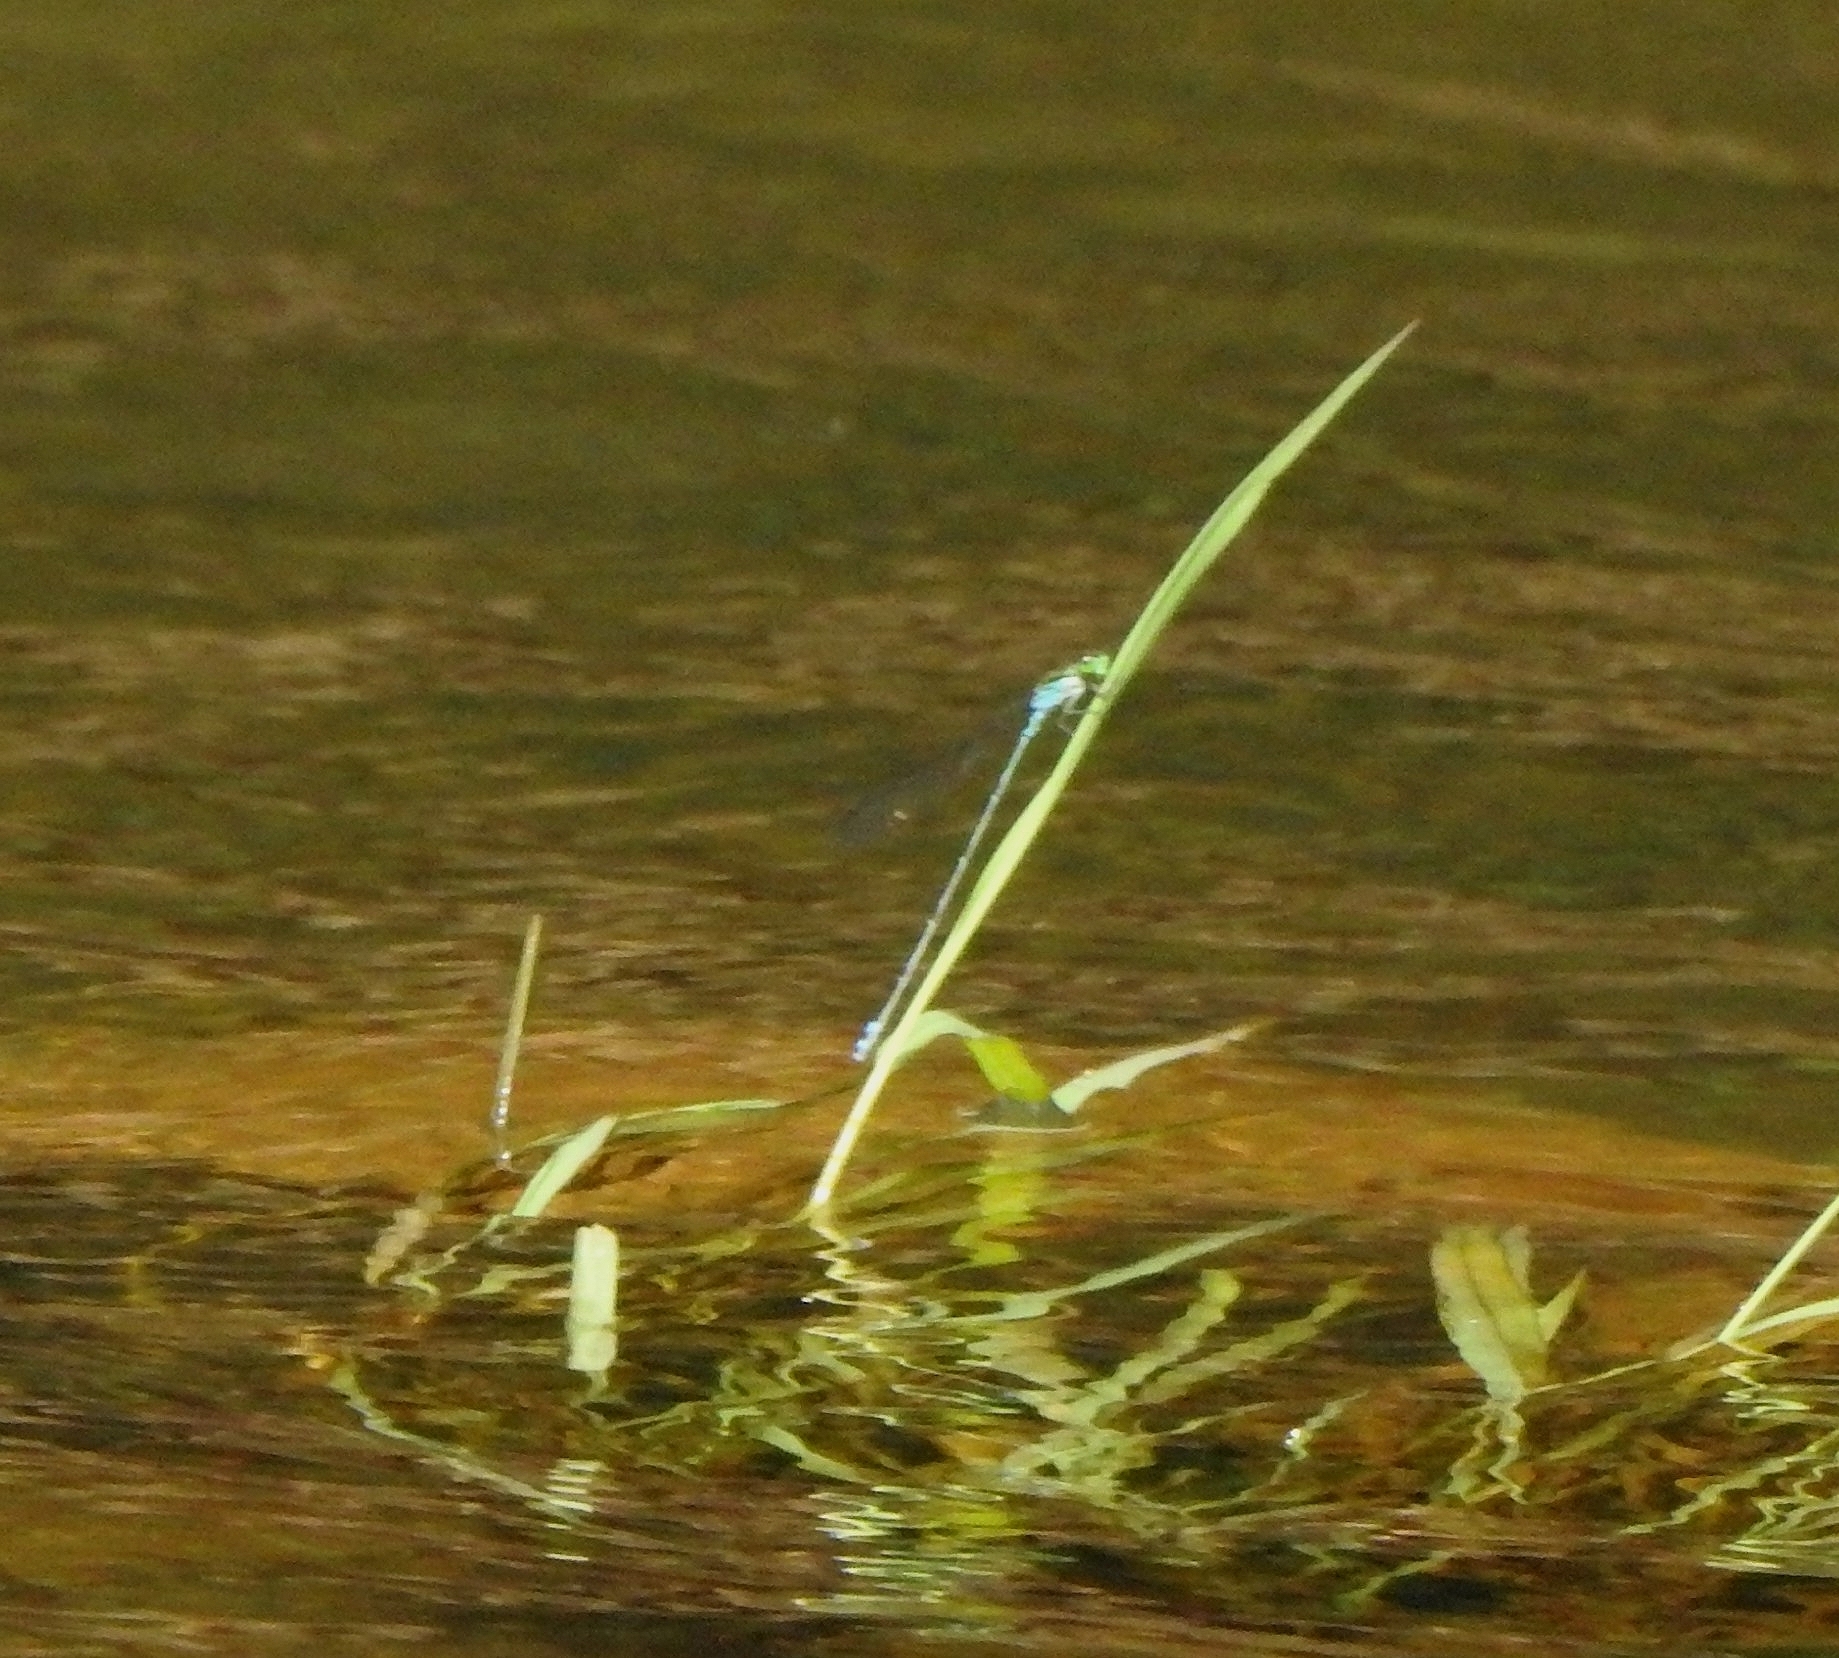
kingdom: Animalia
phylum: Arthropoda
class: Insecta
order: Odonata
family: Coenagrionidae
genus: Pseudagrion
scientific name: Pseudagrion indicum
